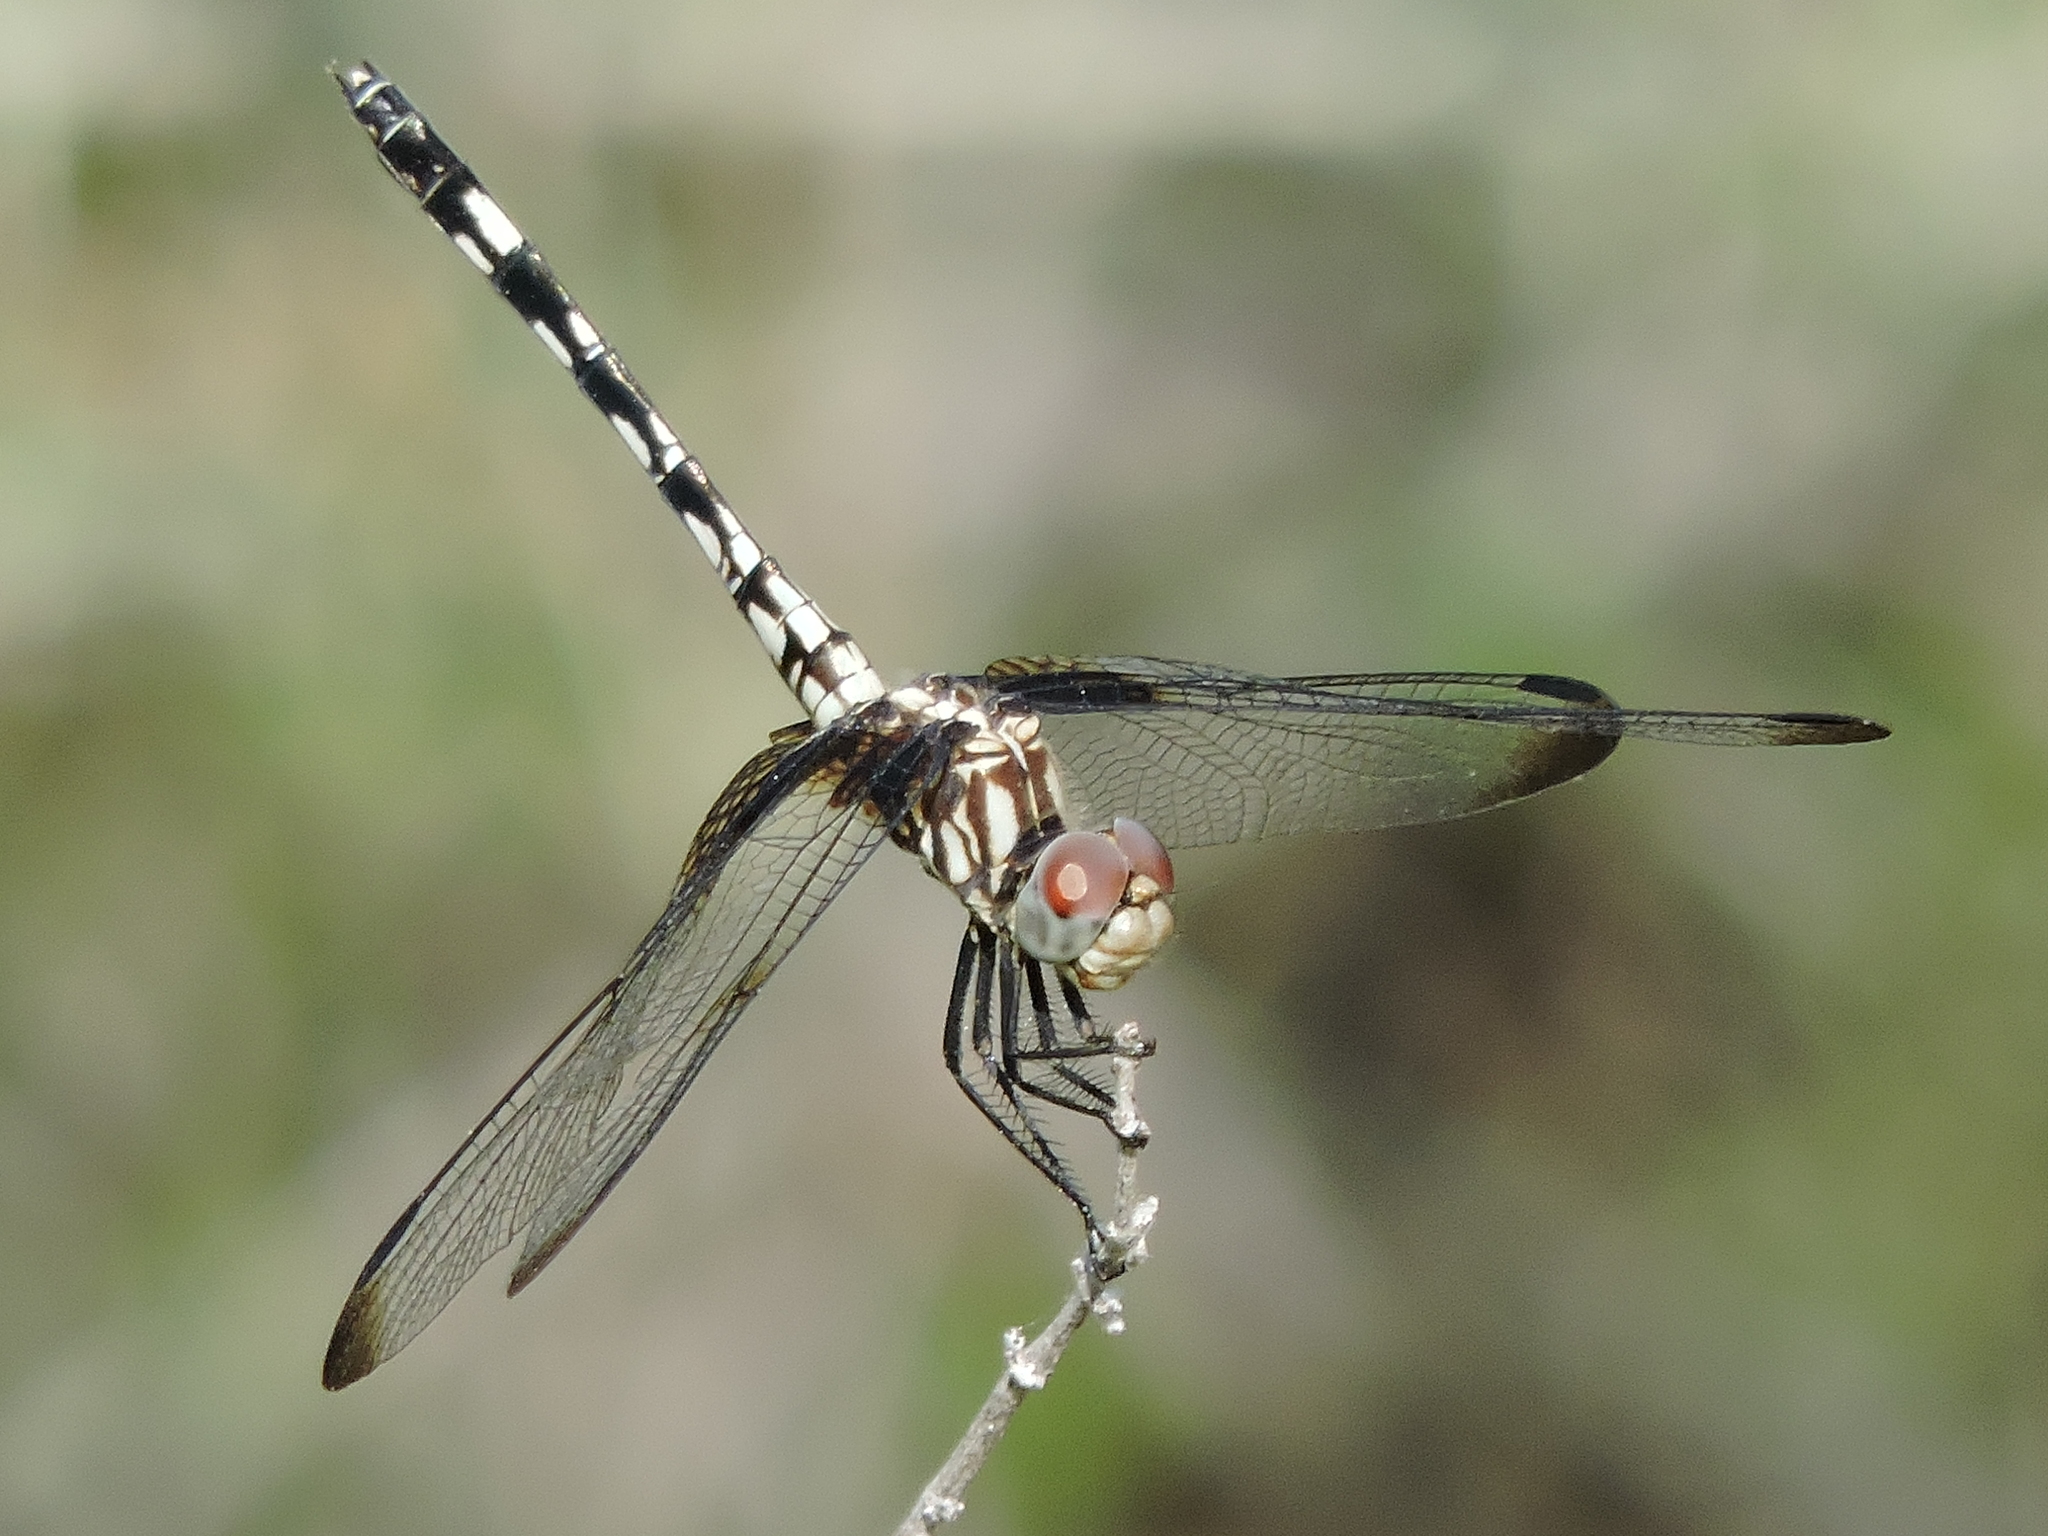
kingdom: Animalia
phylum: Arthropoda
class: Insecta
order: Odonata
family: Libellulidae
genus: Dythemis
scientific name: Dythemis fugax
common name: Checkered setwing
